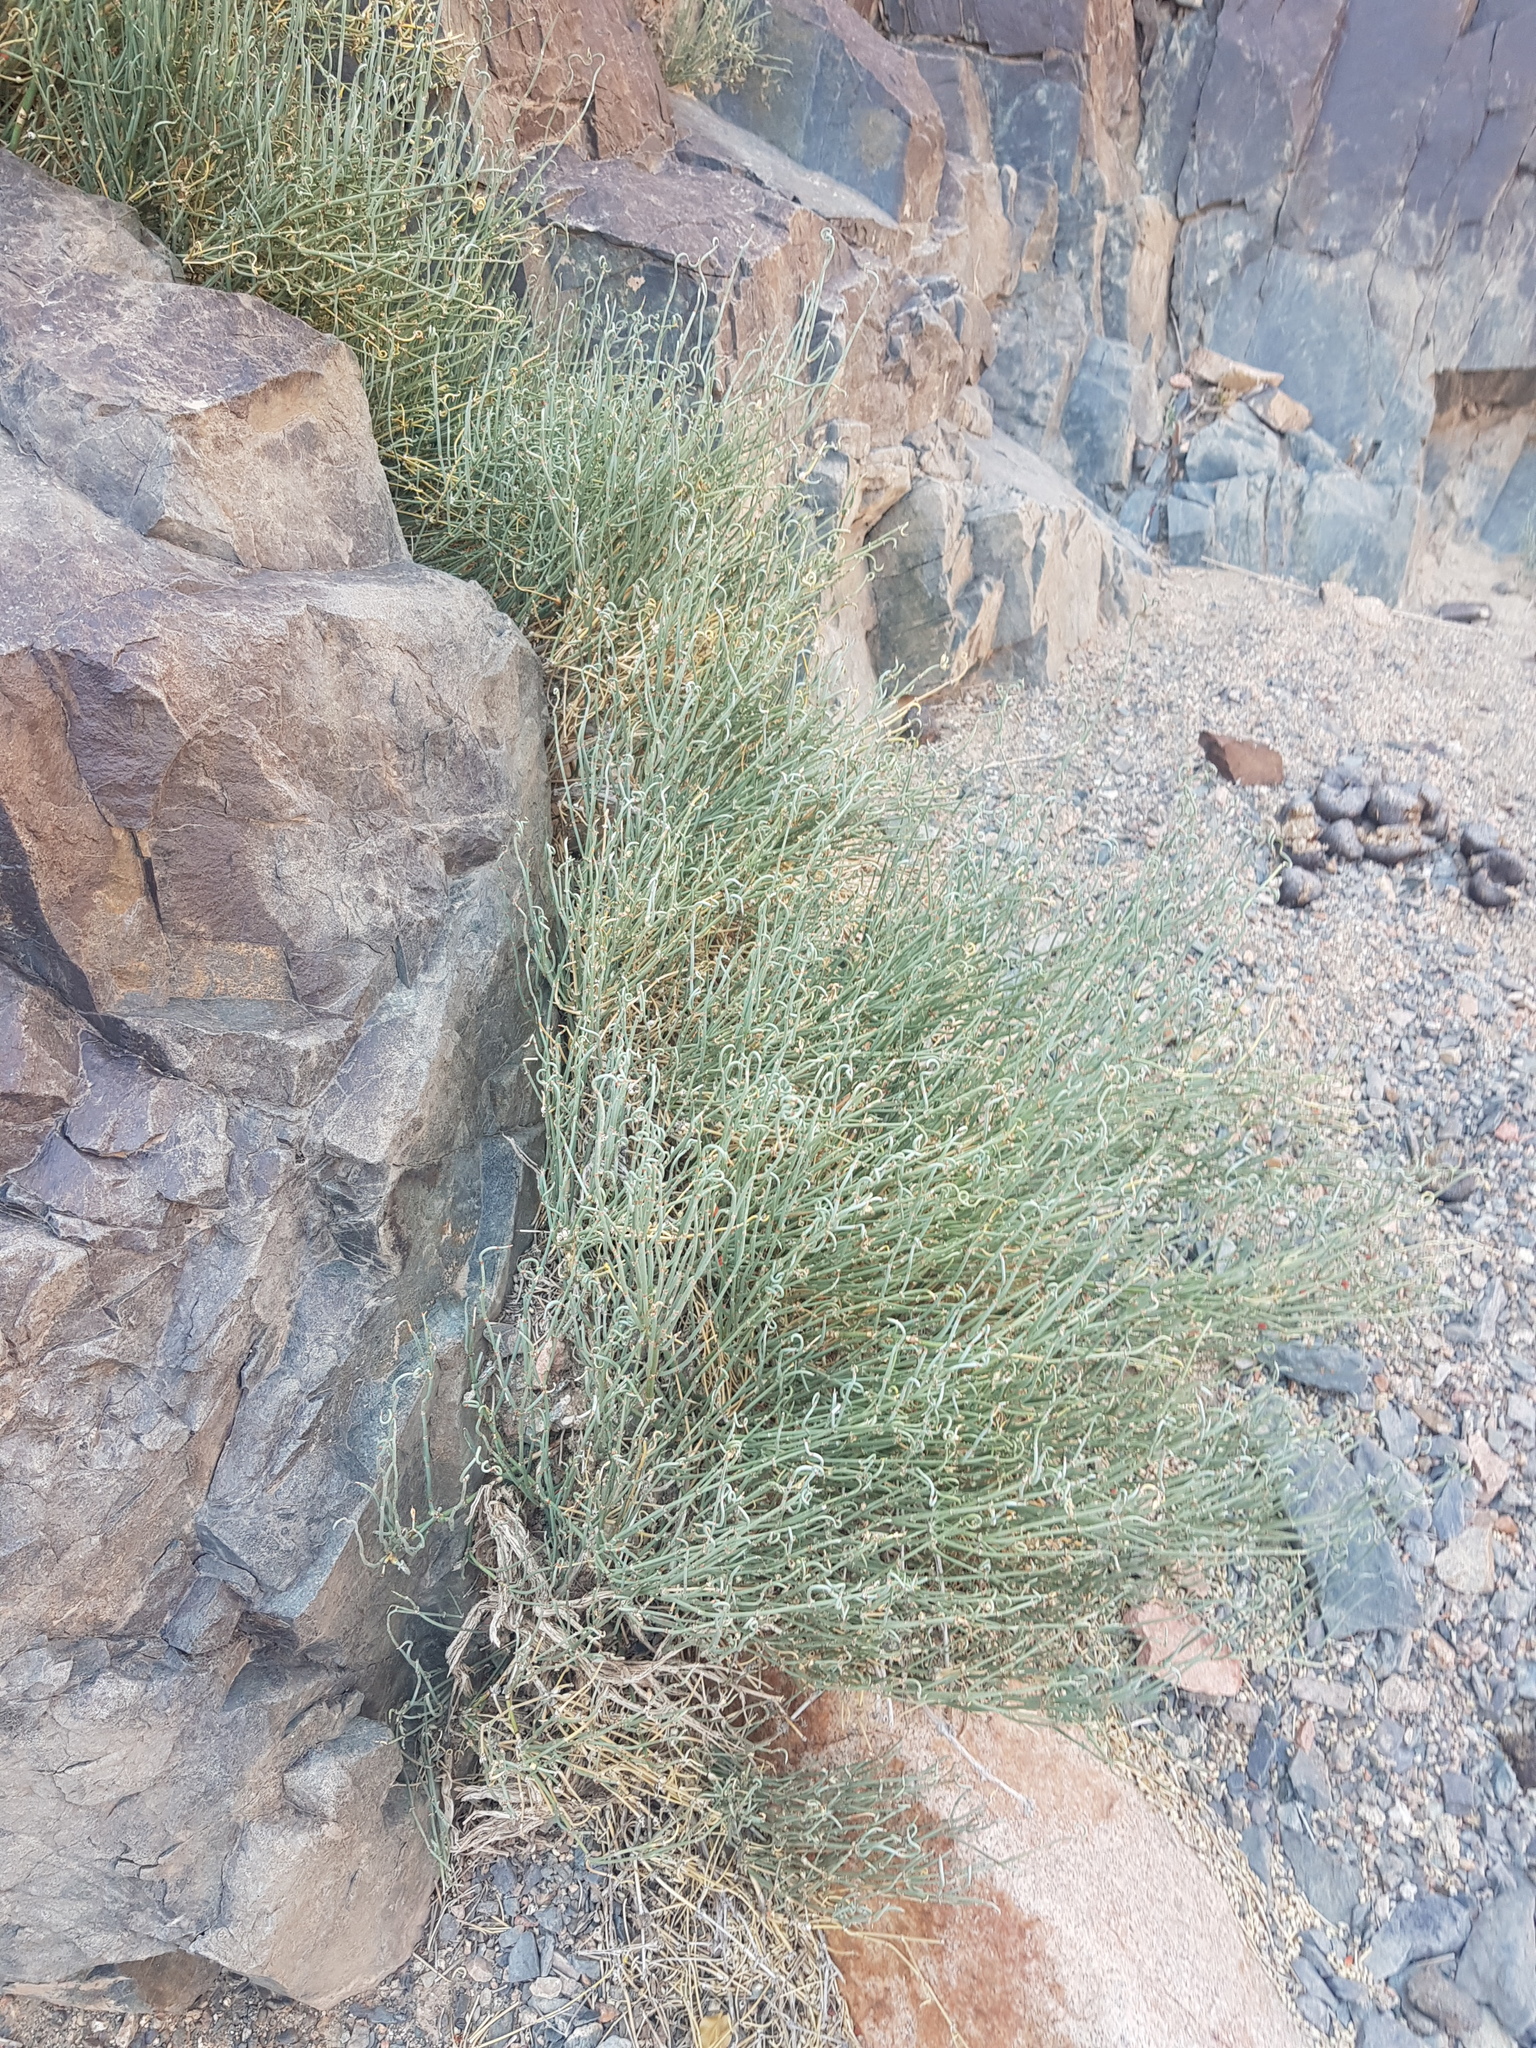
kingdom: Plantae
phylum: Tracheophyta
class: Gnetopsida
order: Ephedrales
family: Ephedraceae
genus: Ephedra
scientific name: Ephedra equisetina
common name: Mongolian ephedra
